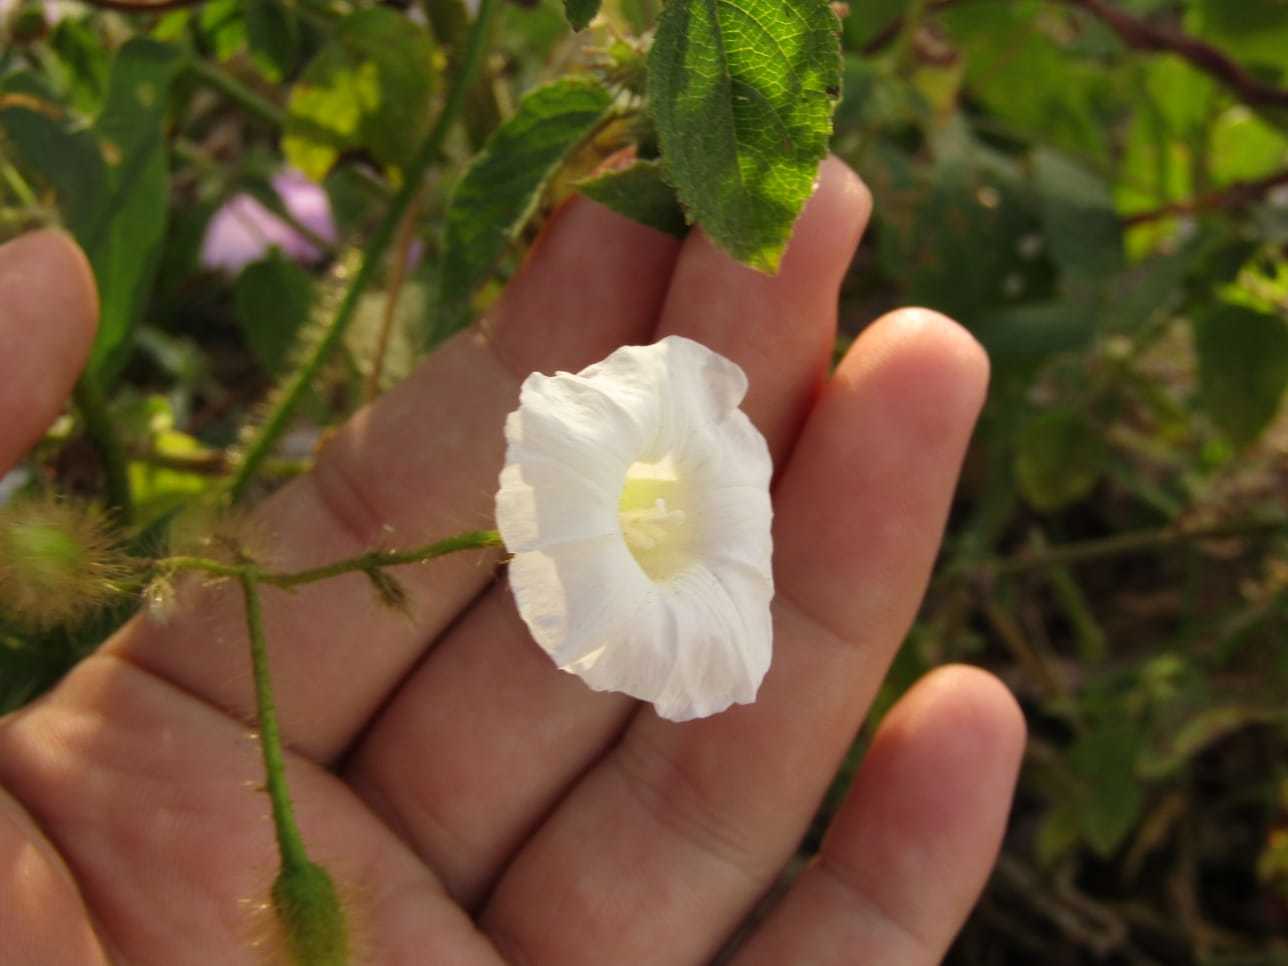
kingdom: Plantae
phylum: Tracheophyta
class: Magnoliopsida
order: Solanales
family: Convolvulaceae
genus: Distimake
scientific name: Distimake aegyptius
